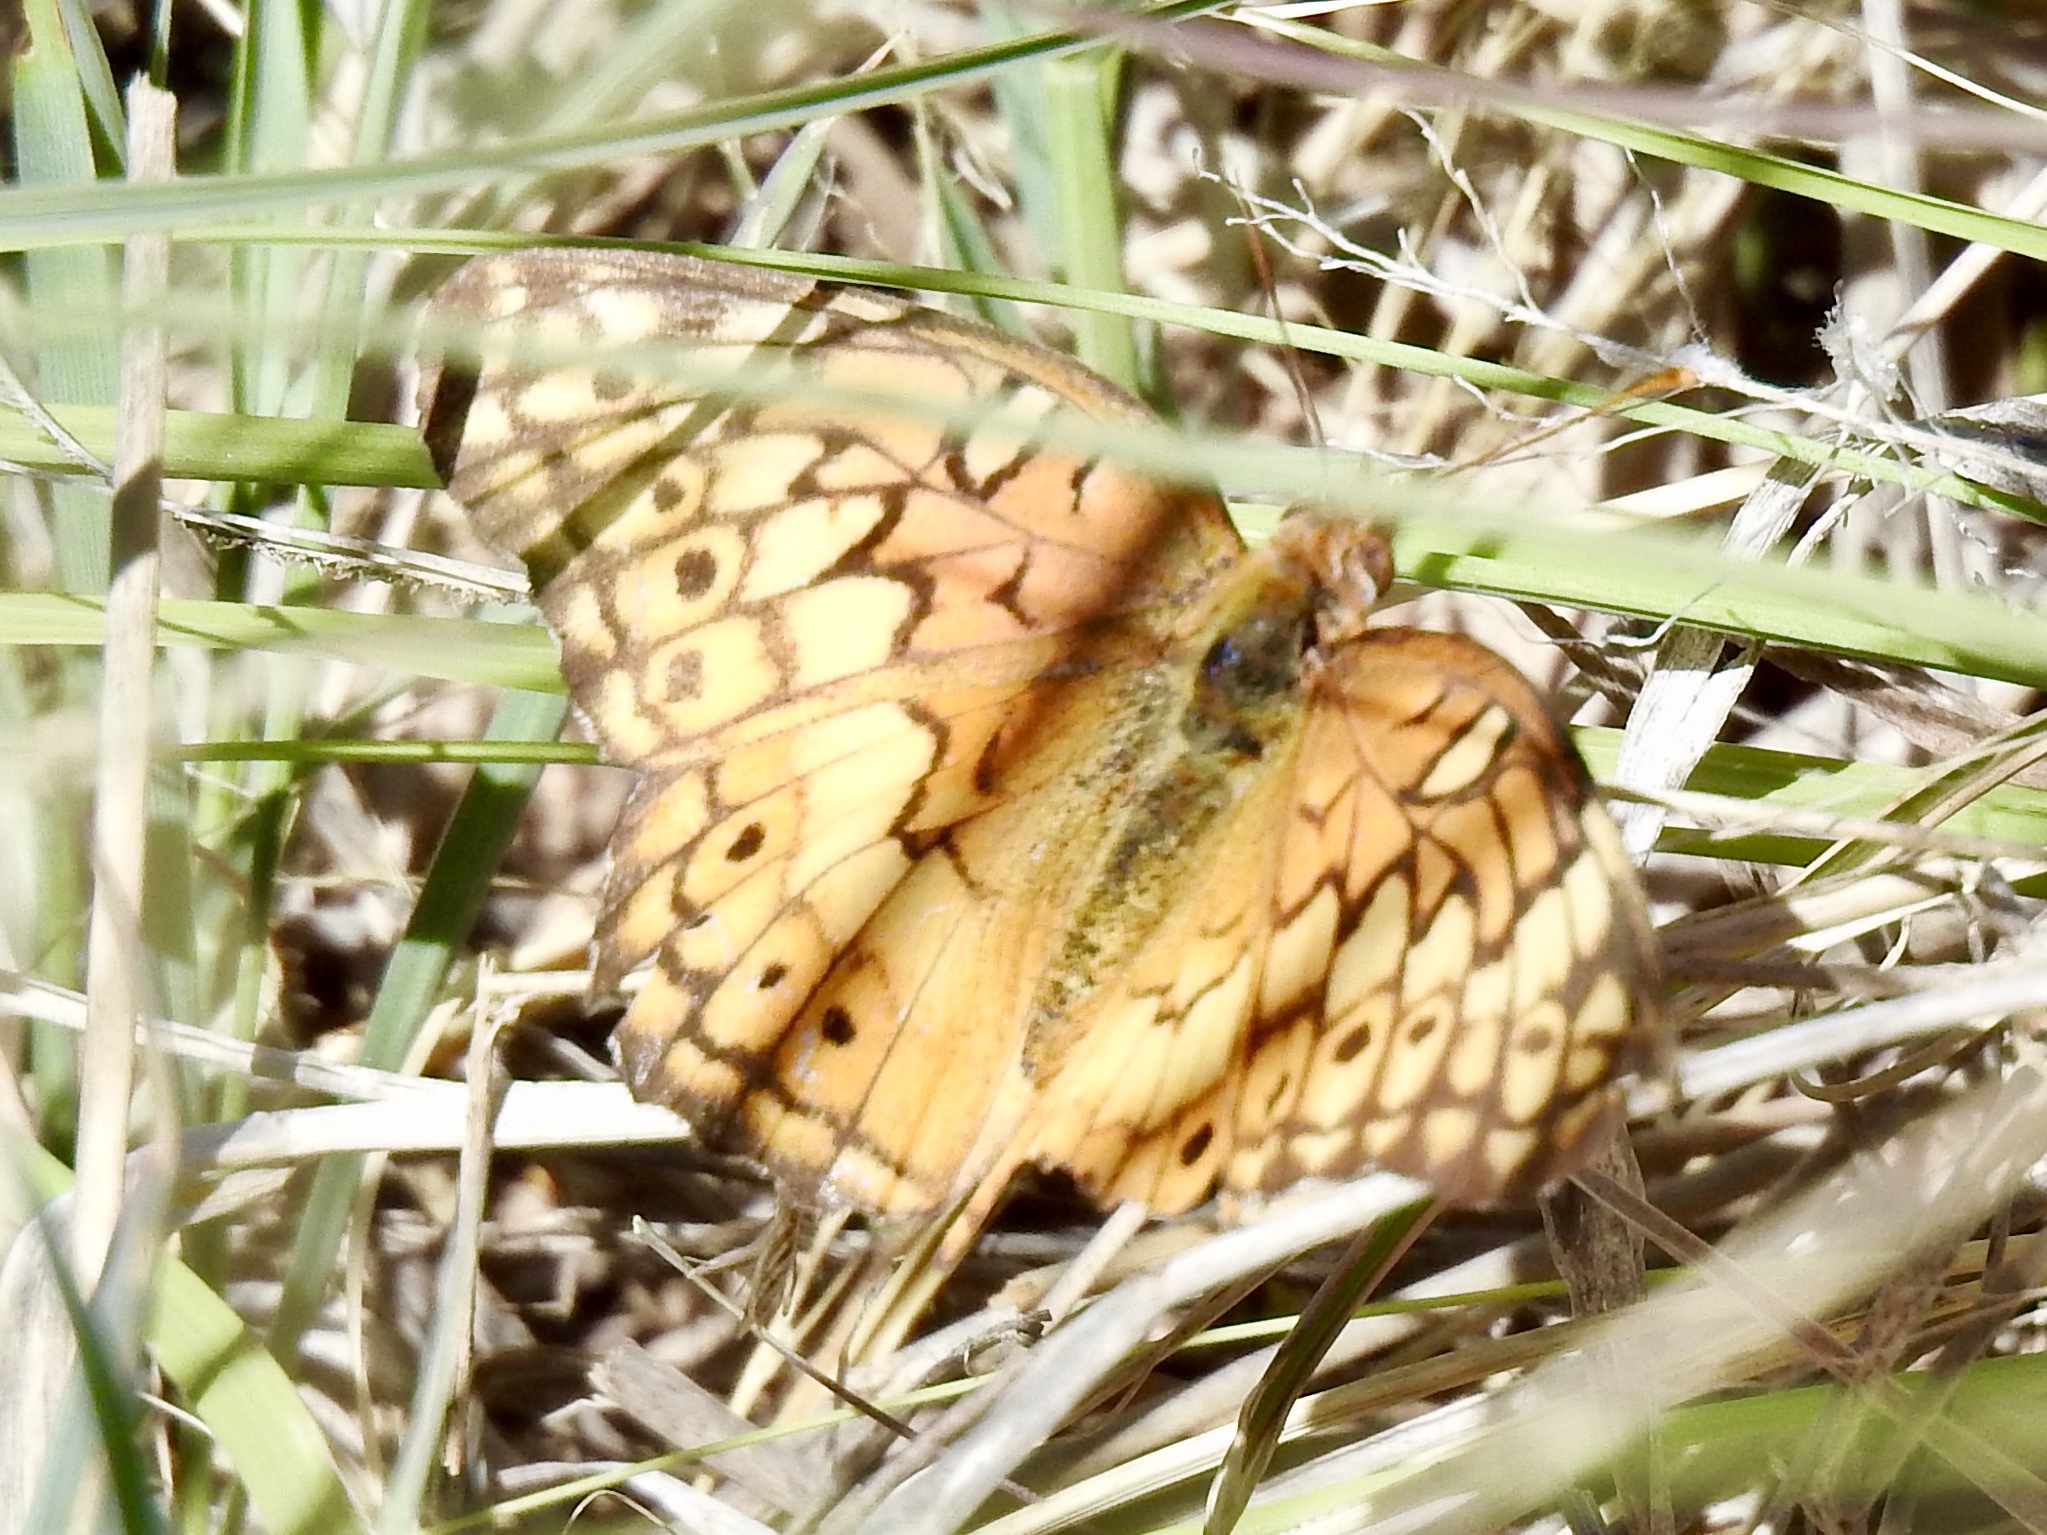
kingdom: Animalia
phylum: Arthropoda
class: Insecta
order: Lepidoptera
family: Nymphalidae
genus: Euptoieta
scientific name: Euptoieta claudia
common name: Variegated fritillary
